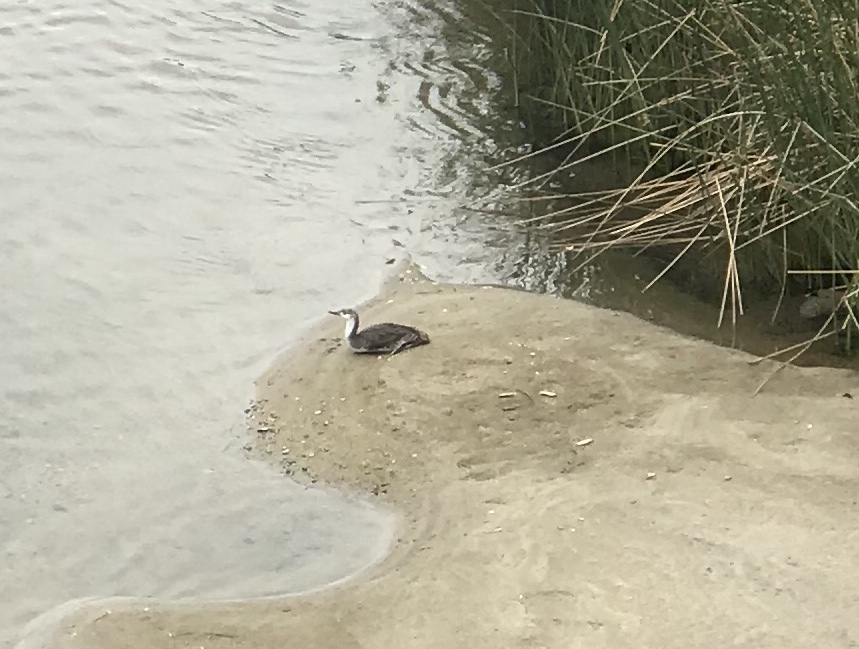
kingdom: Animalia
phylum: Chordata
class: Aves
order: Gaviiformes
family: Gaviidae
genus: Gavia
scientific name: Gavia stellata
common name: Red-throated loon
